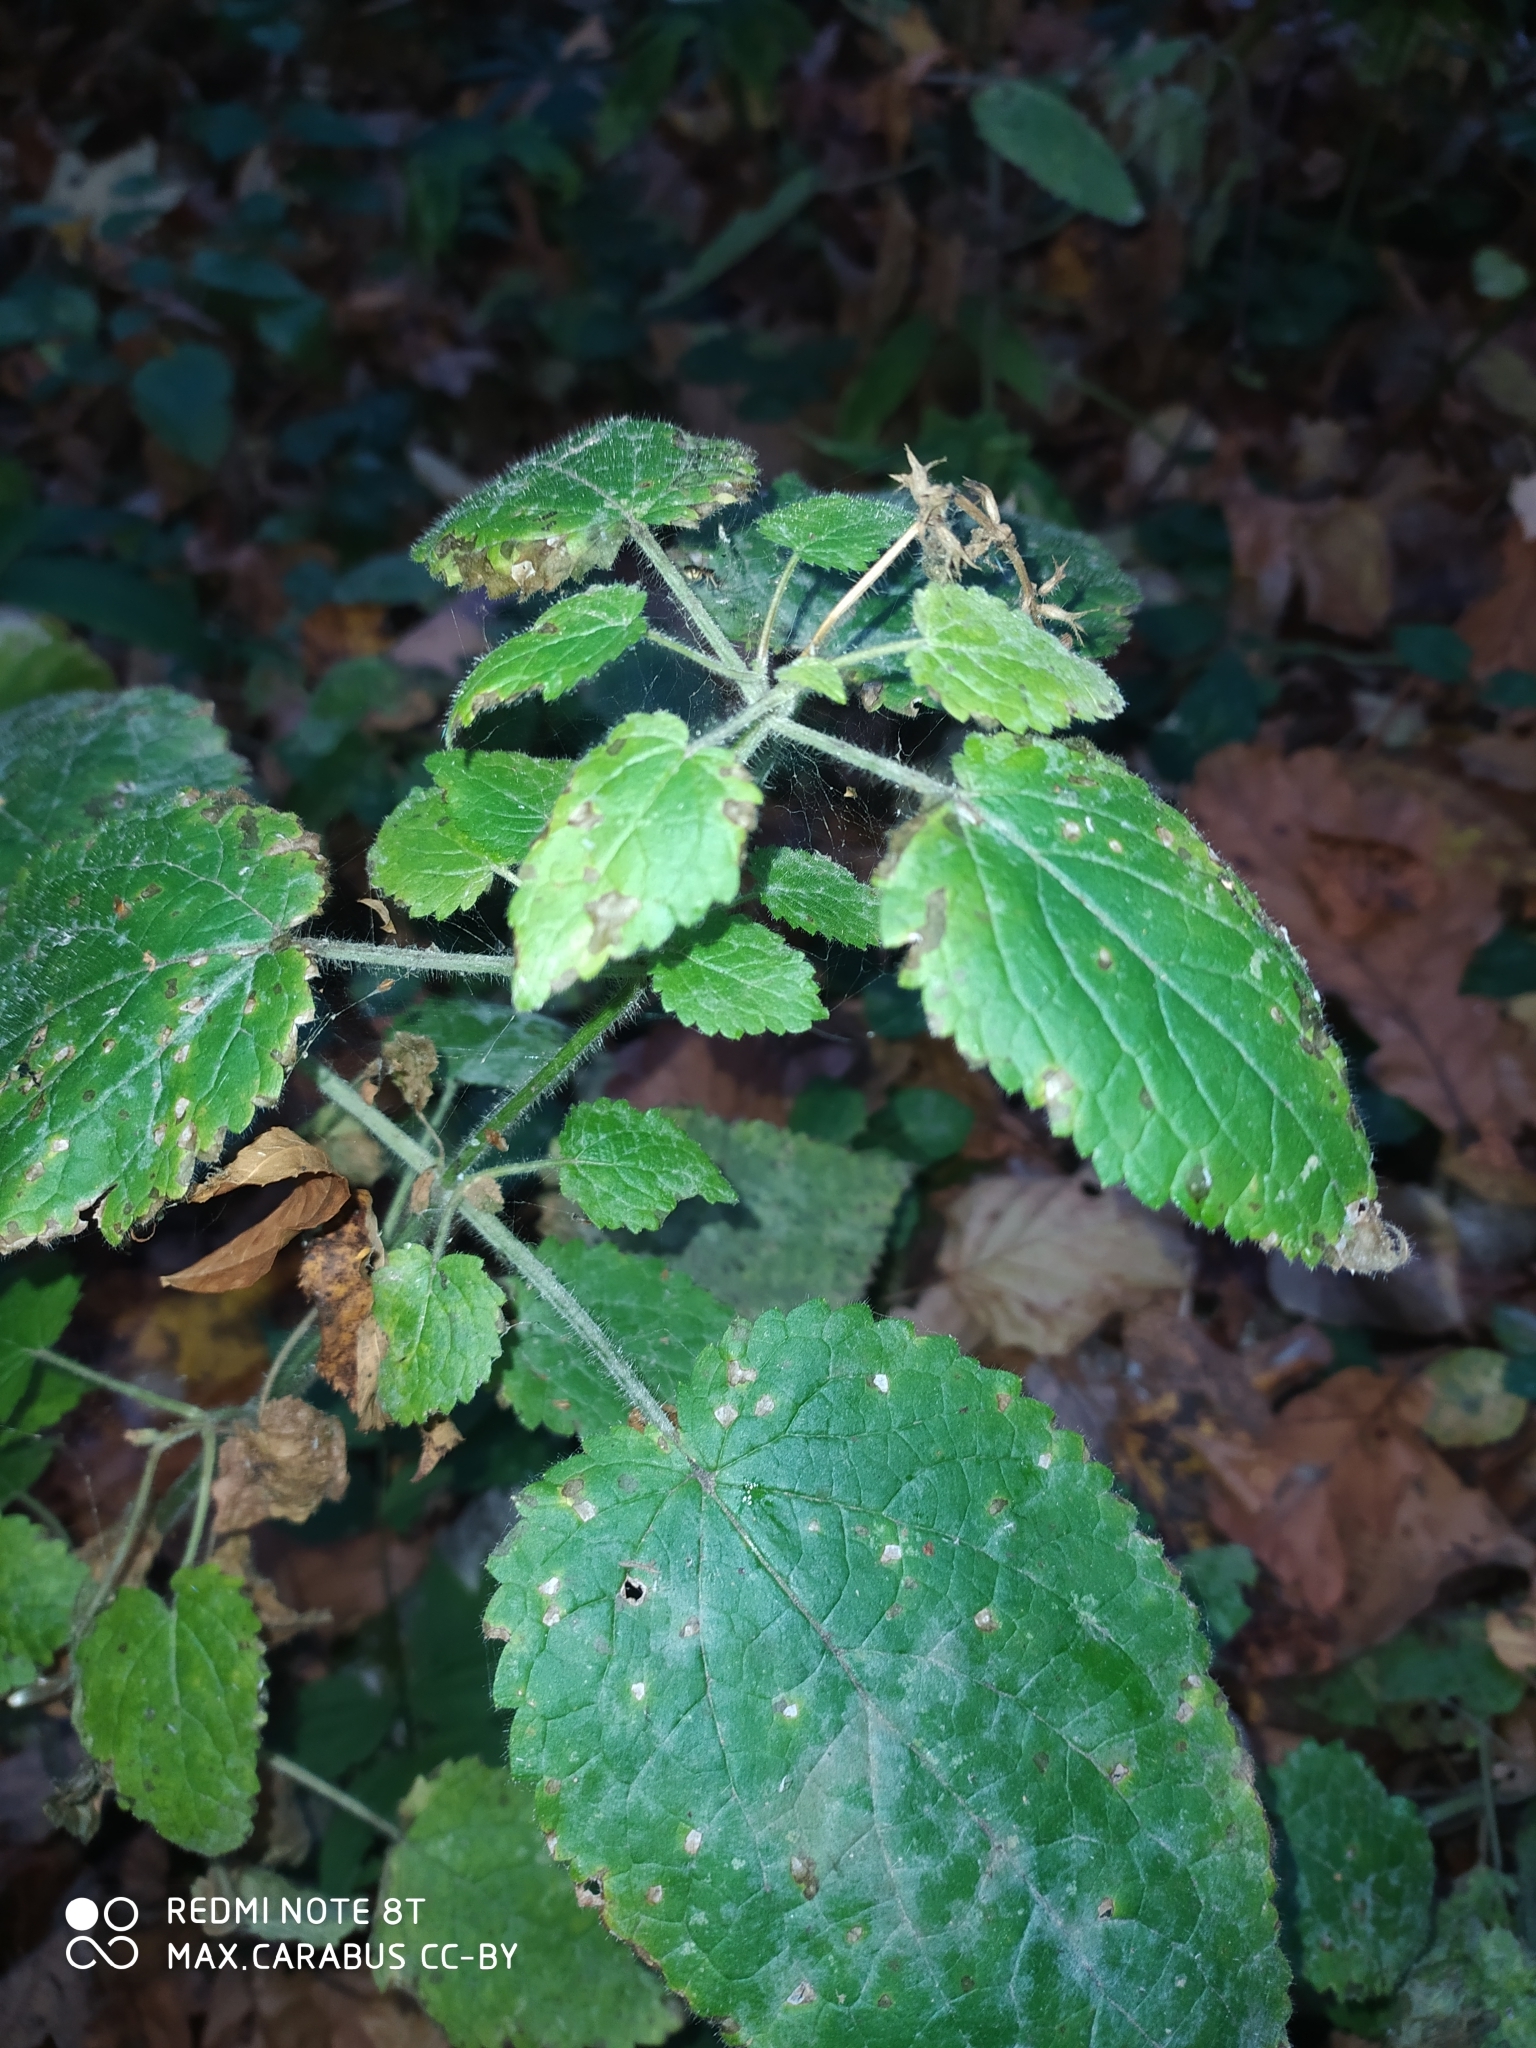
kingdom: Plantae
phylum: Tracheophyta
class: Magnoliopsida
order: Lamiales
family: Lamiaceae
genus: Stachys
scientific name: Stachys sylvatica
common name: Hedge woundwort
